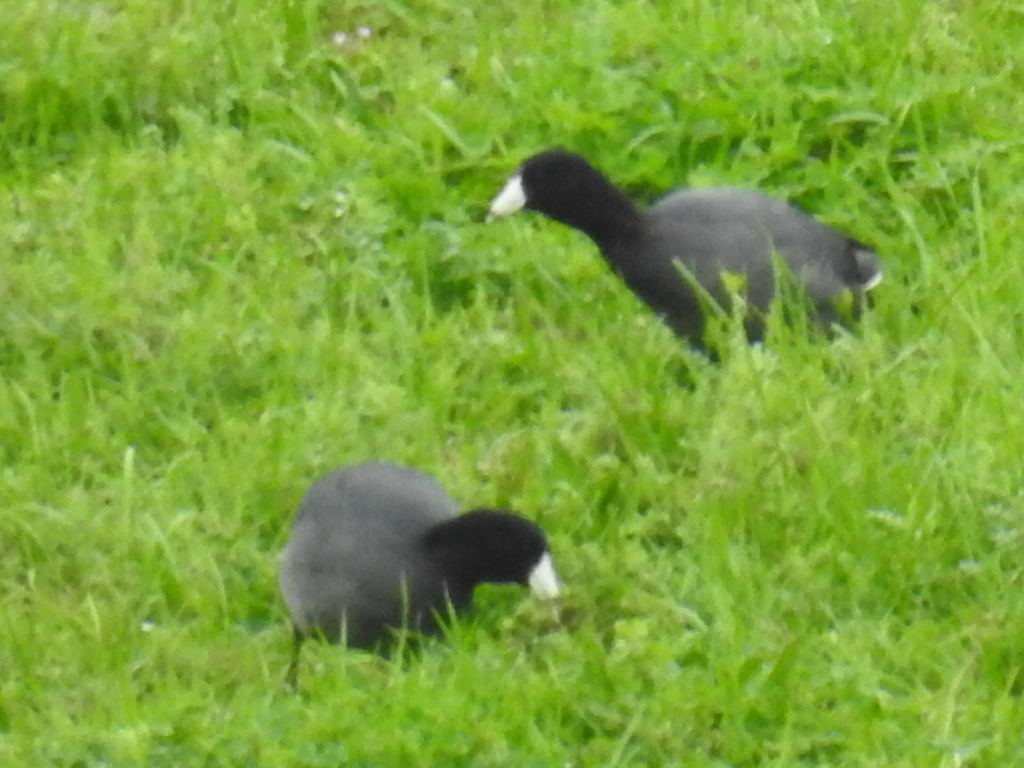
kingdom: Animalia
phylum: Chordata
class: Aves
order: Gruiformes
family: Rallidae
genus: Fulica
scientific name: Fulica americana
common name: American coot
